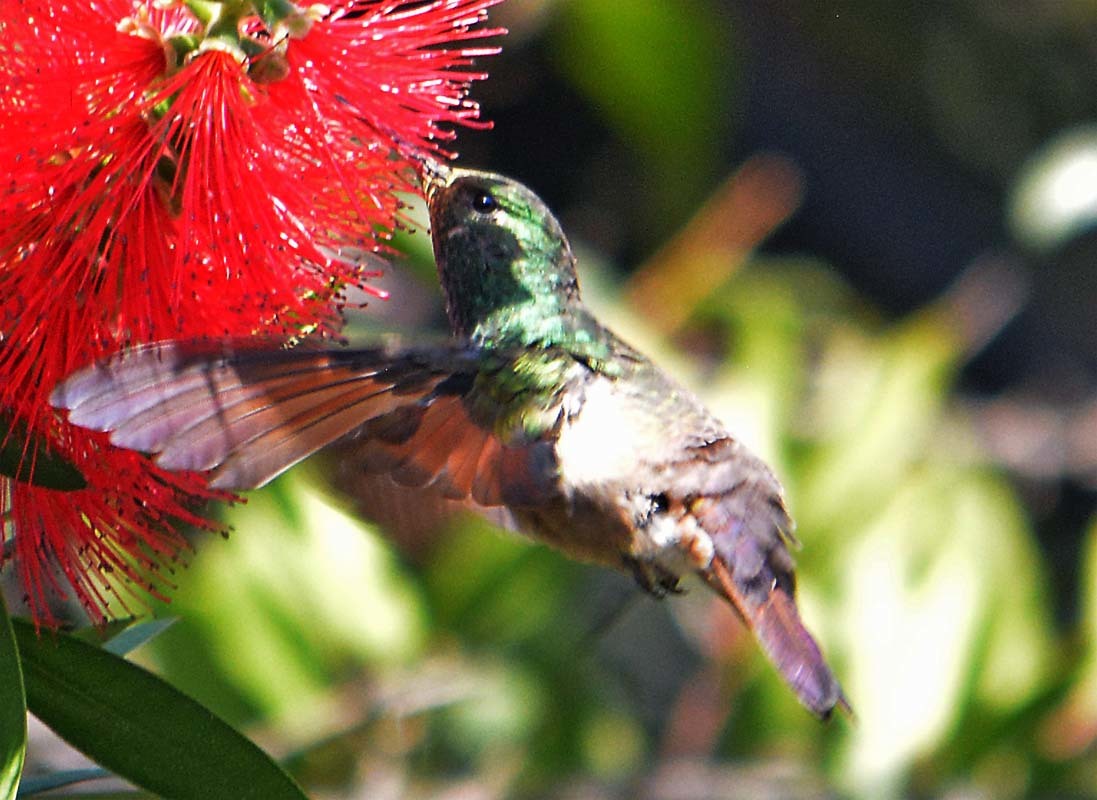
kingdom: Animalia
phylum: Chordata
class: Aves
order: Apodiformes
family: Trochilidae
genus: Saucerottia
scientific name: Saucerottia beryllina
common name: Berylline hummingbird
